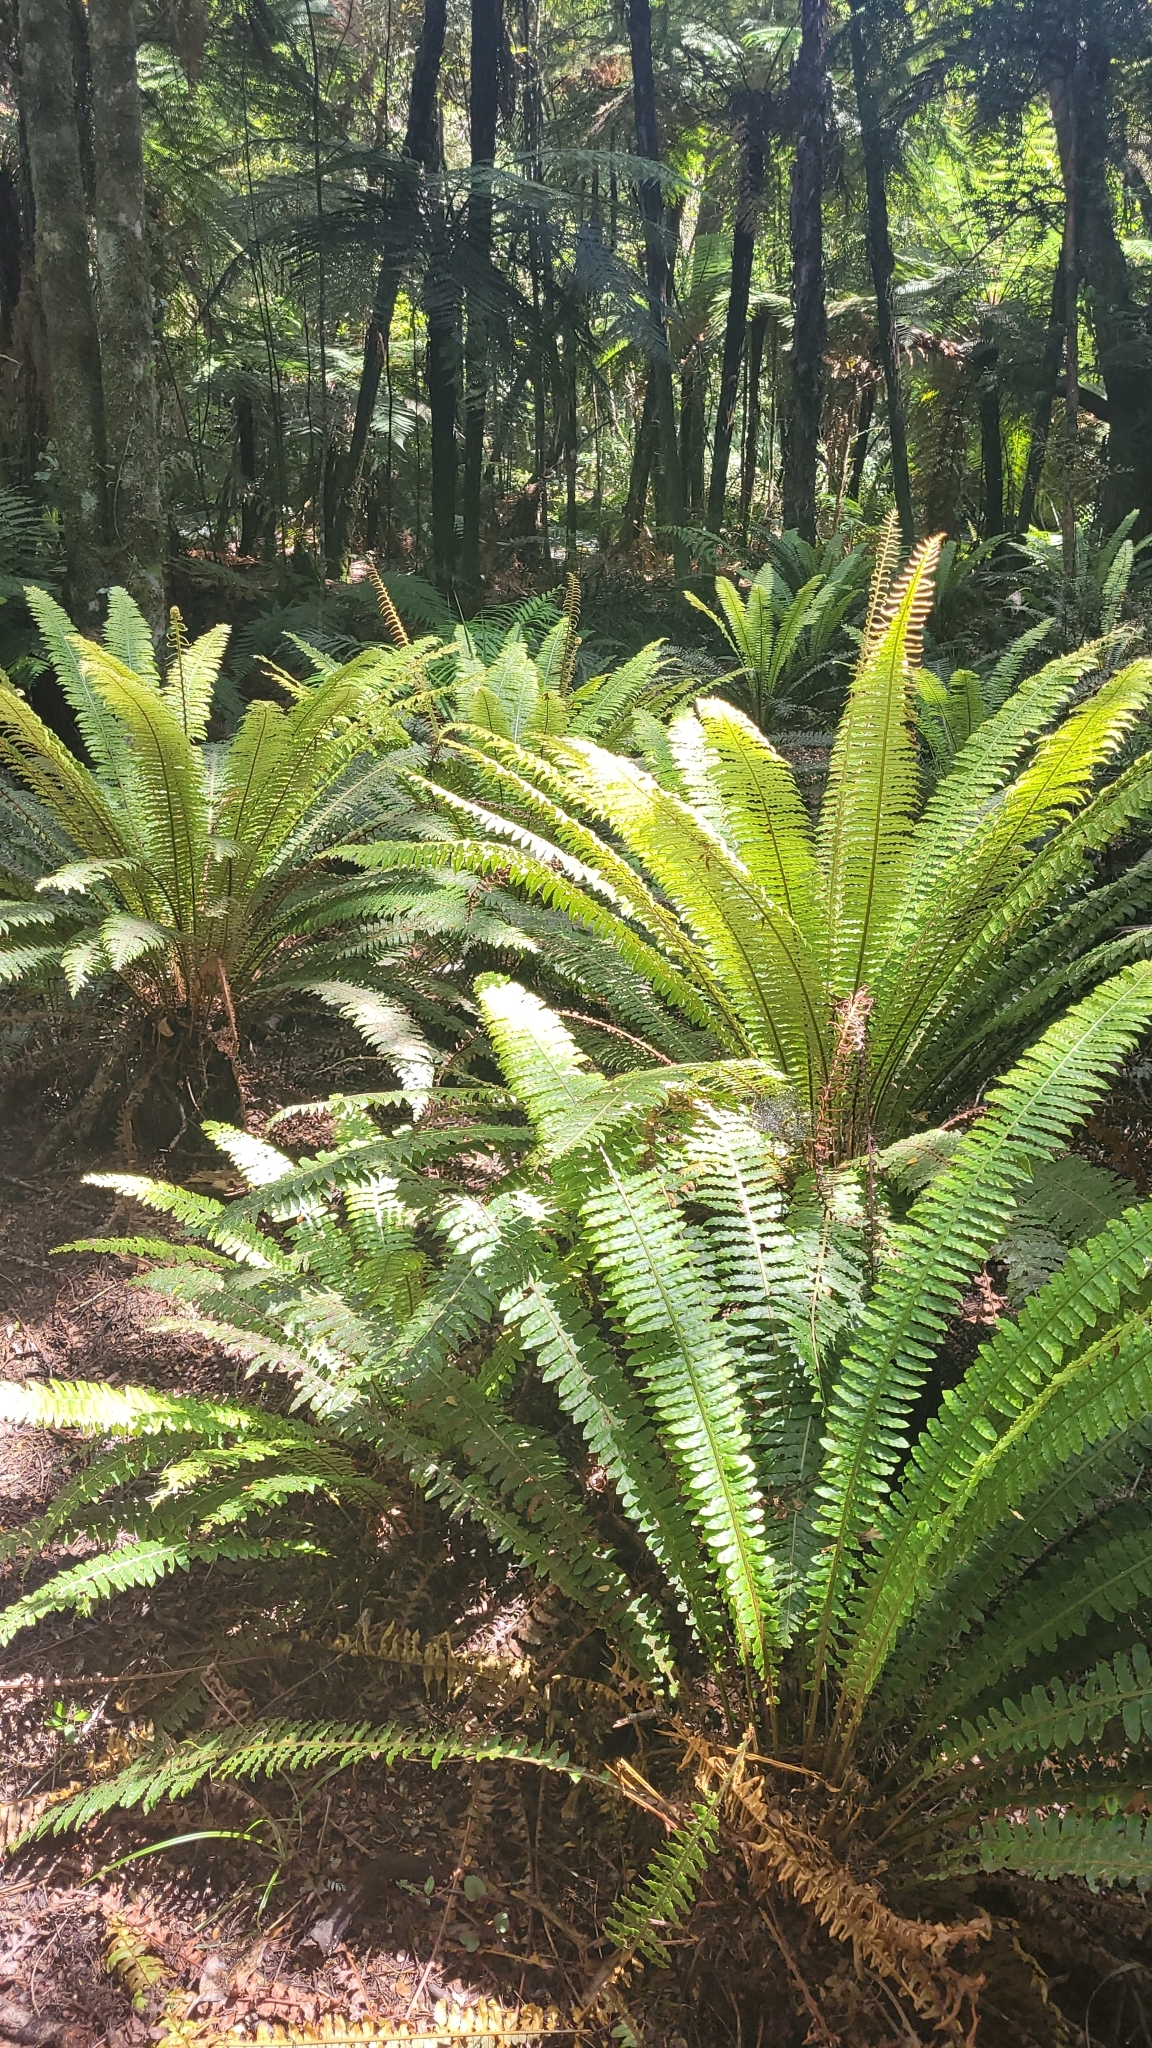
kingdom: Plantae
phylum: Tracheophyta
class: Polypodiopsida
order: Polypodiales
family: Blechnaceae
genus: Lomaria
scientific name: Lomaria discolor
